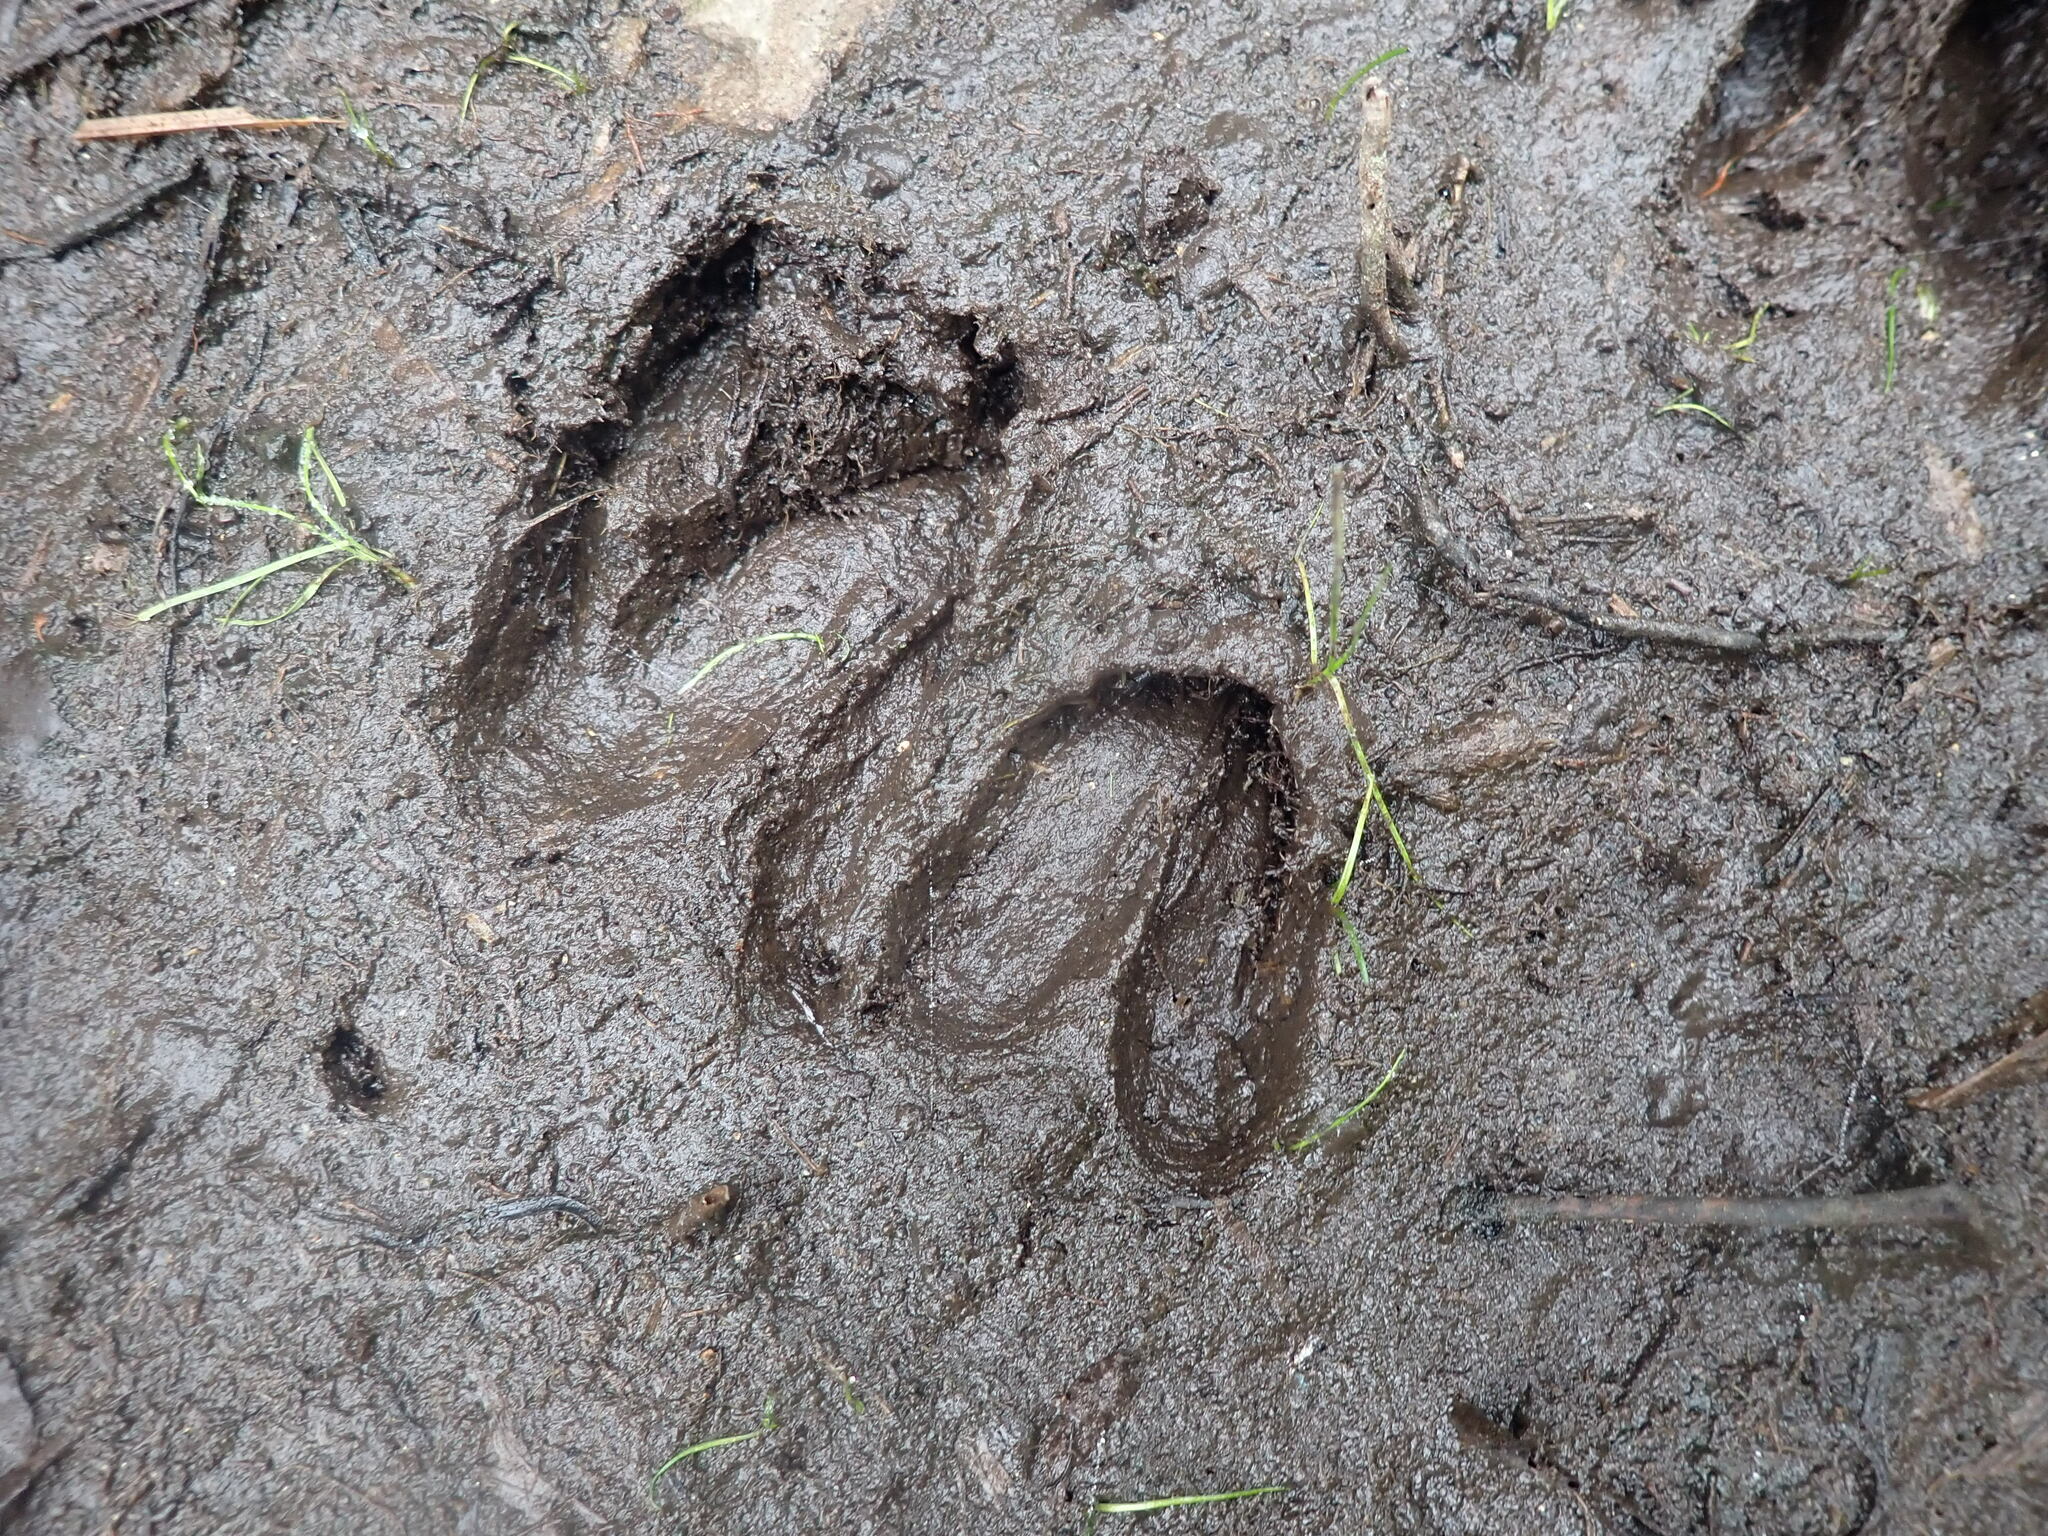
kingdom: Animalia
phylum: Chordata
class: Mammalia
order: Artiodactyla
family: Cervidae
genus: Odocoileus
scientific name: Odocoileus hemionus
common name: Mule deer
